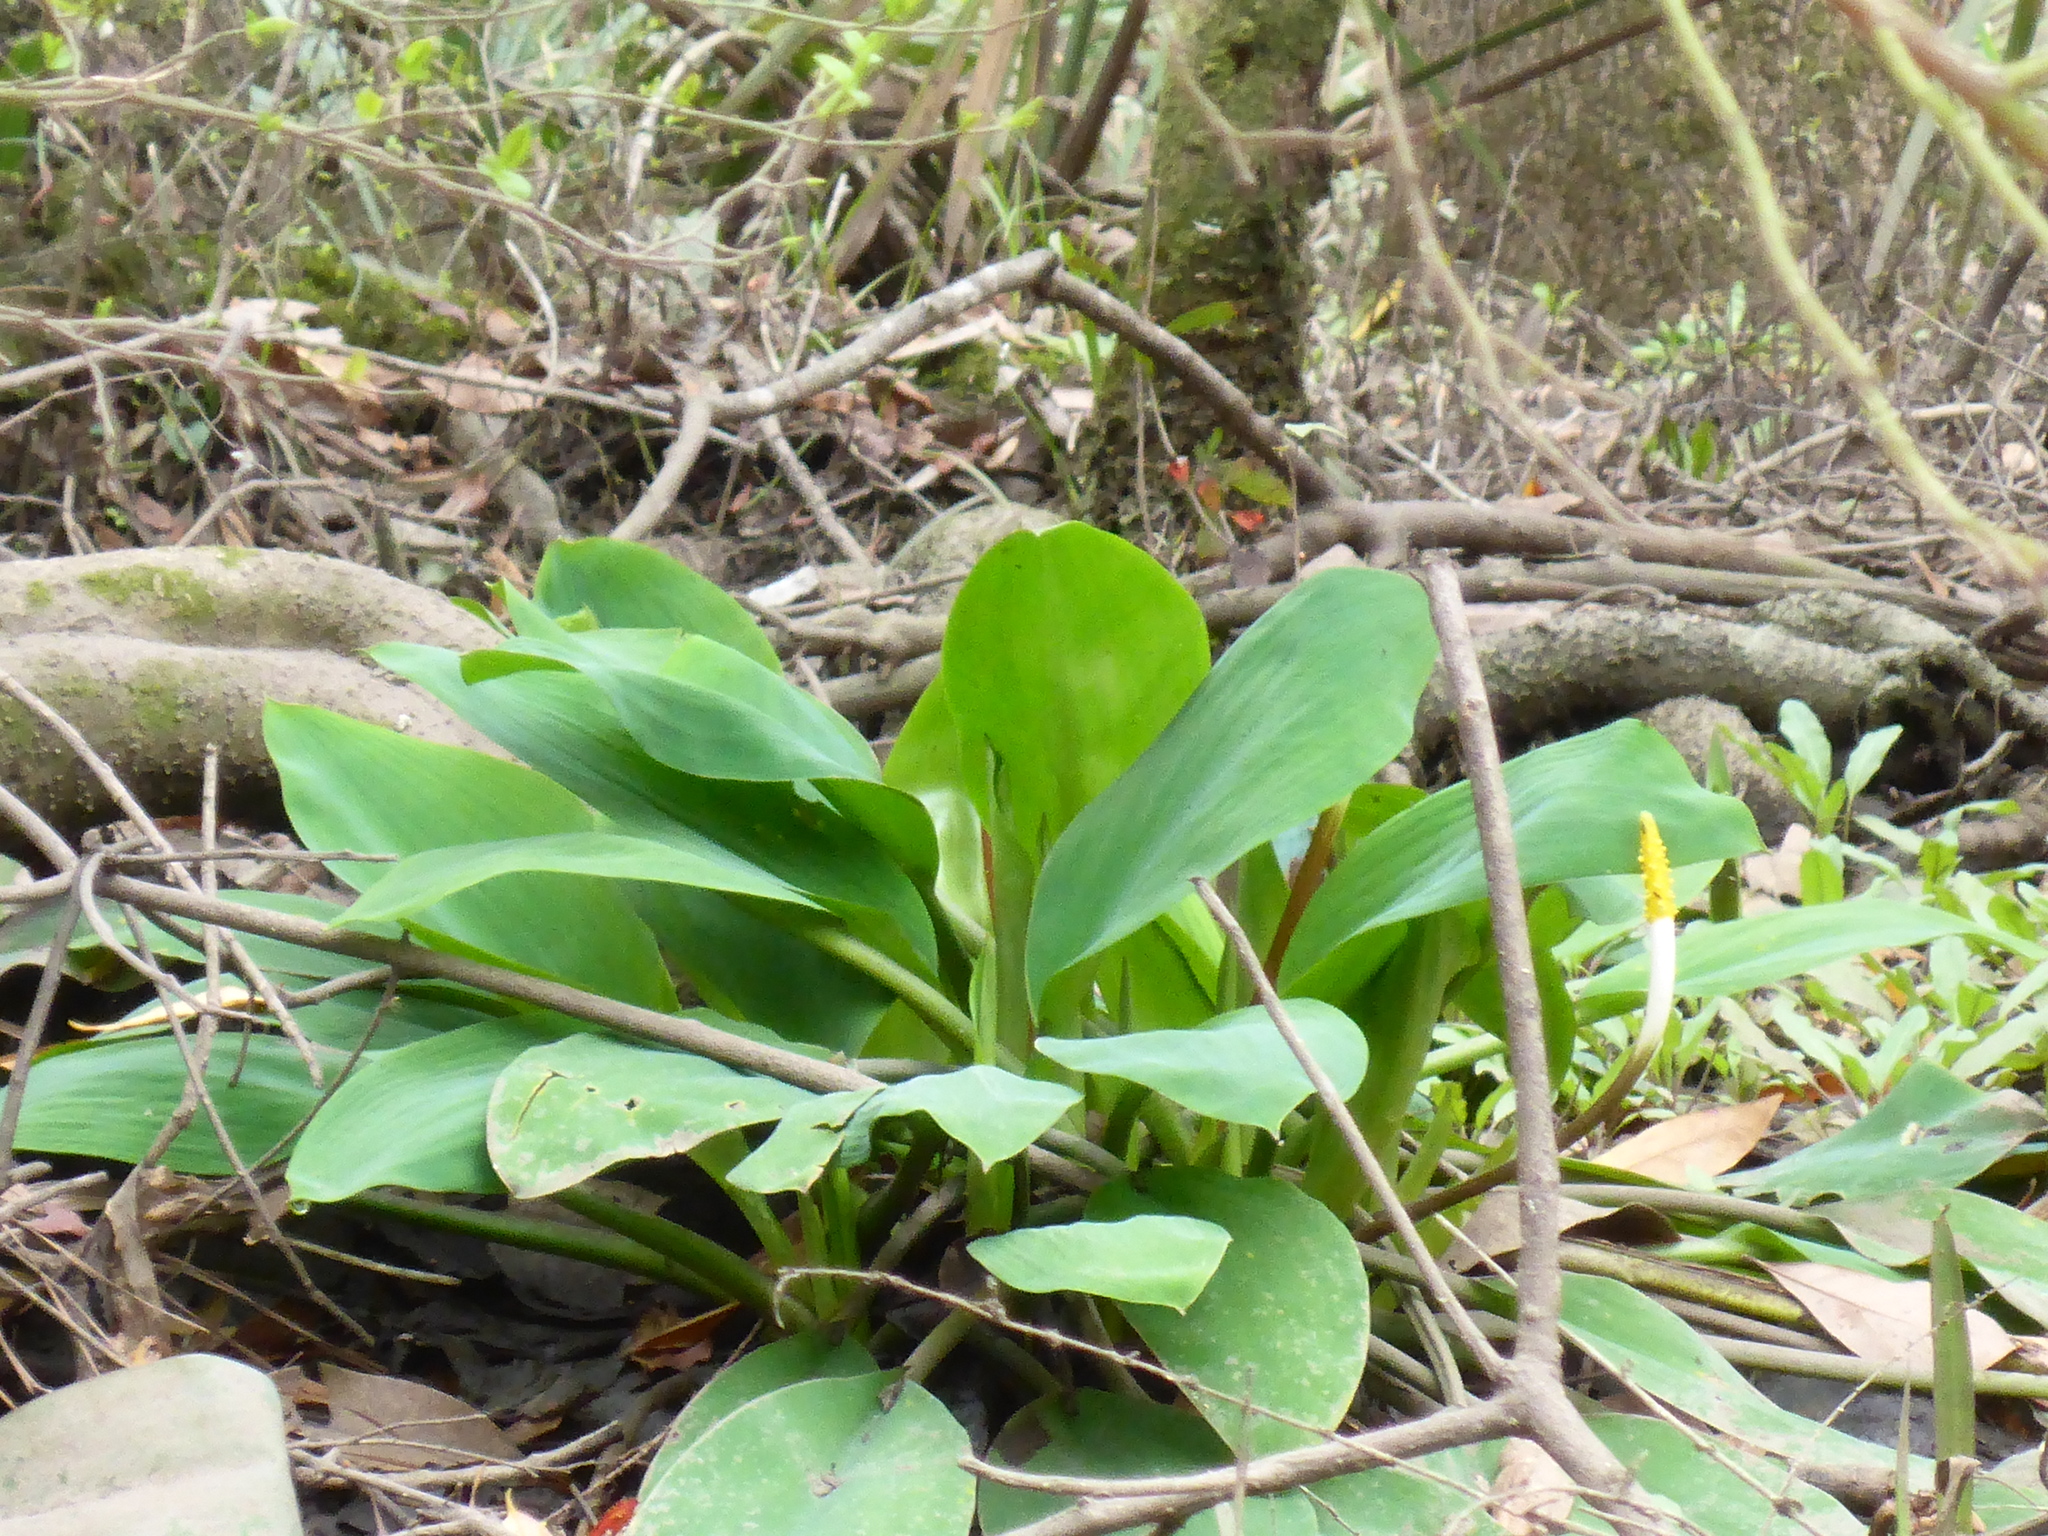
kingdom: Plantae
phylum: Tracheophyta
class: Liliopsida
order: Alismatales
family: Araceae
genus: Orontium
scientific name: Orontium aquaticum
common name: Golden-club
